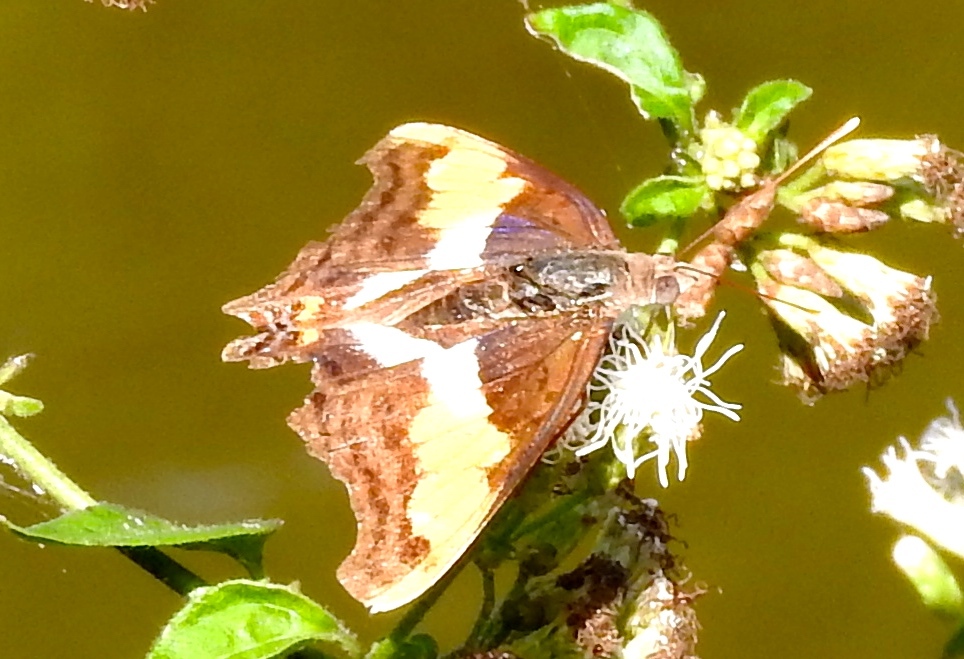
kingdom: Animalia
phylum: Arthropoda
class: Insecta
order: Lepidoptera
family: Nymphalidae
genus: Doxocopa
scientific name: Doxocopa laure
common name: Silver emperor
